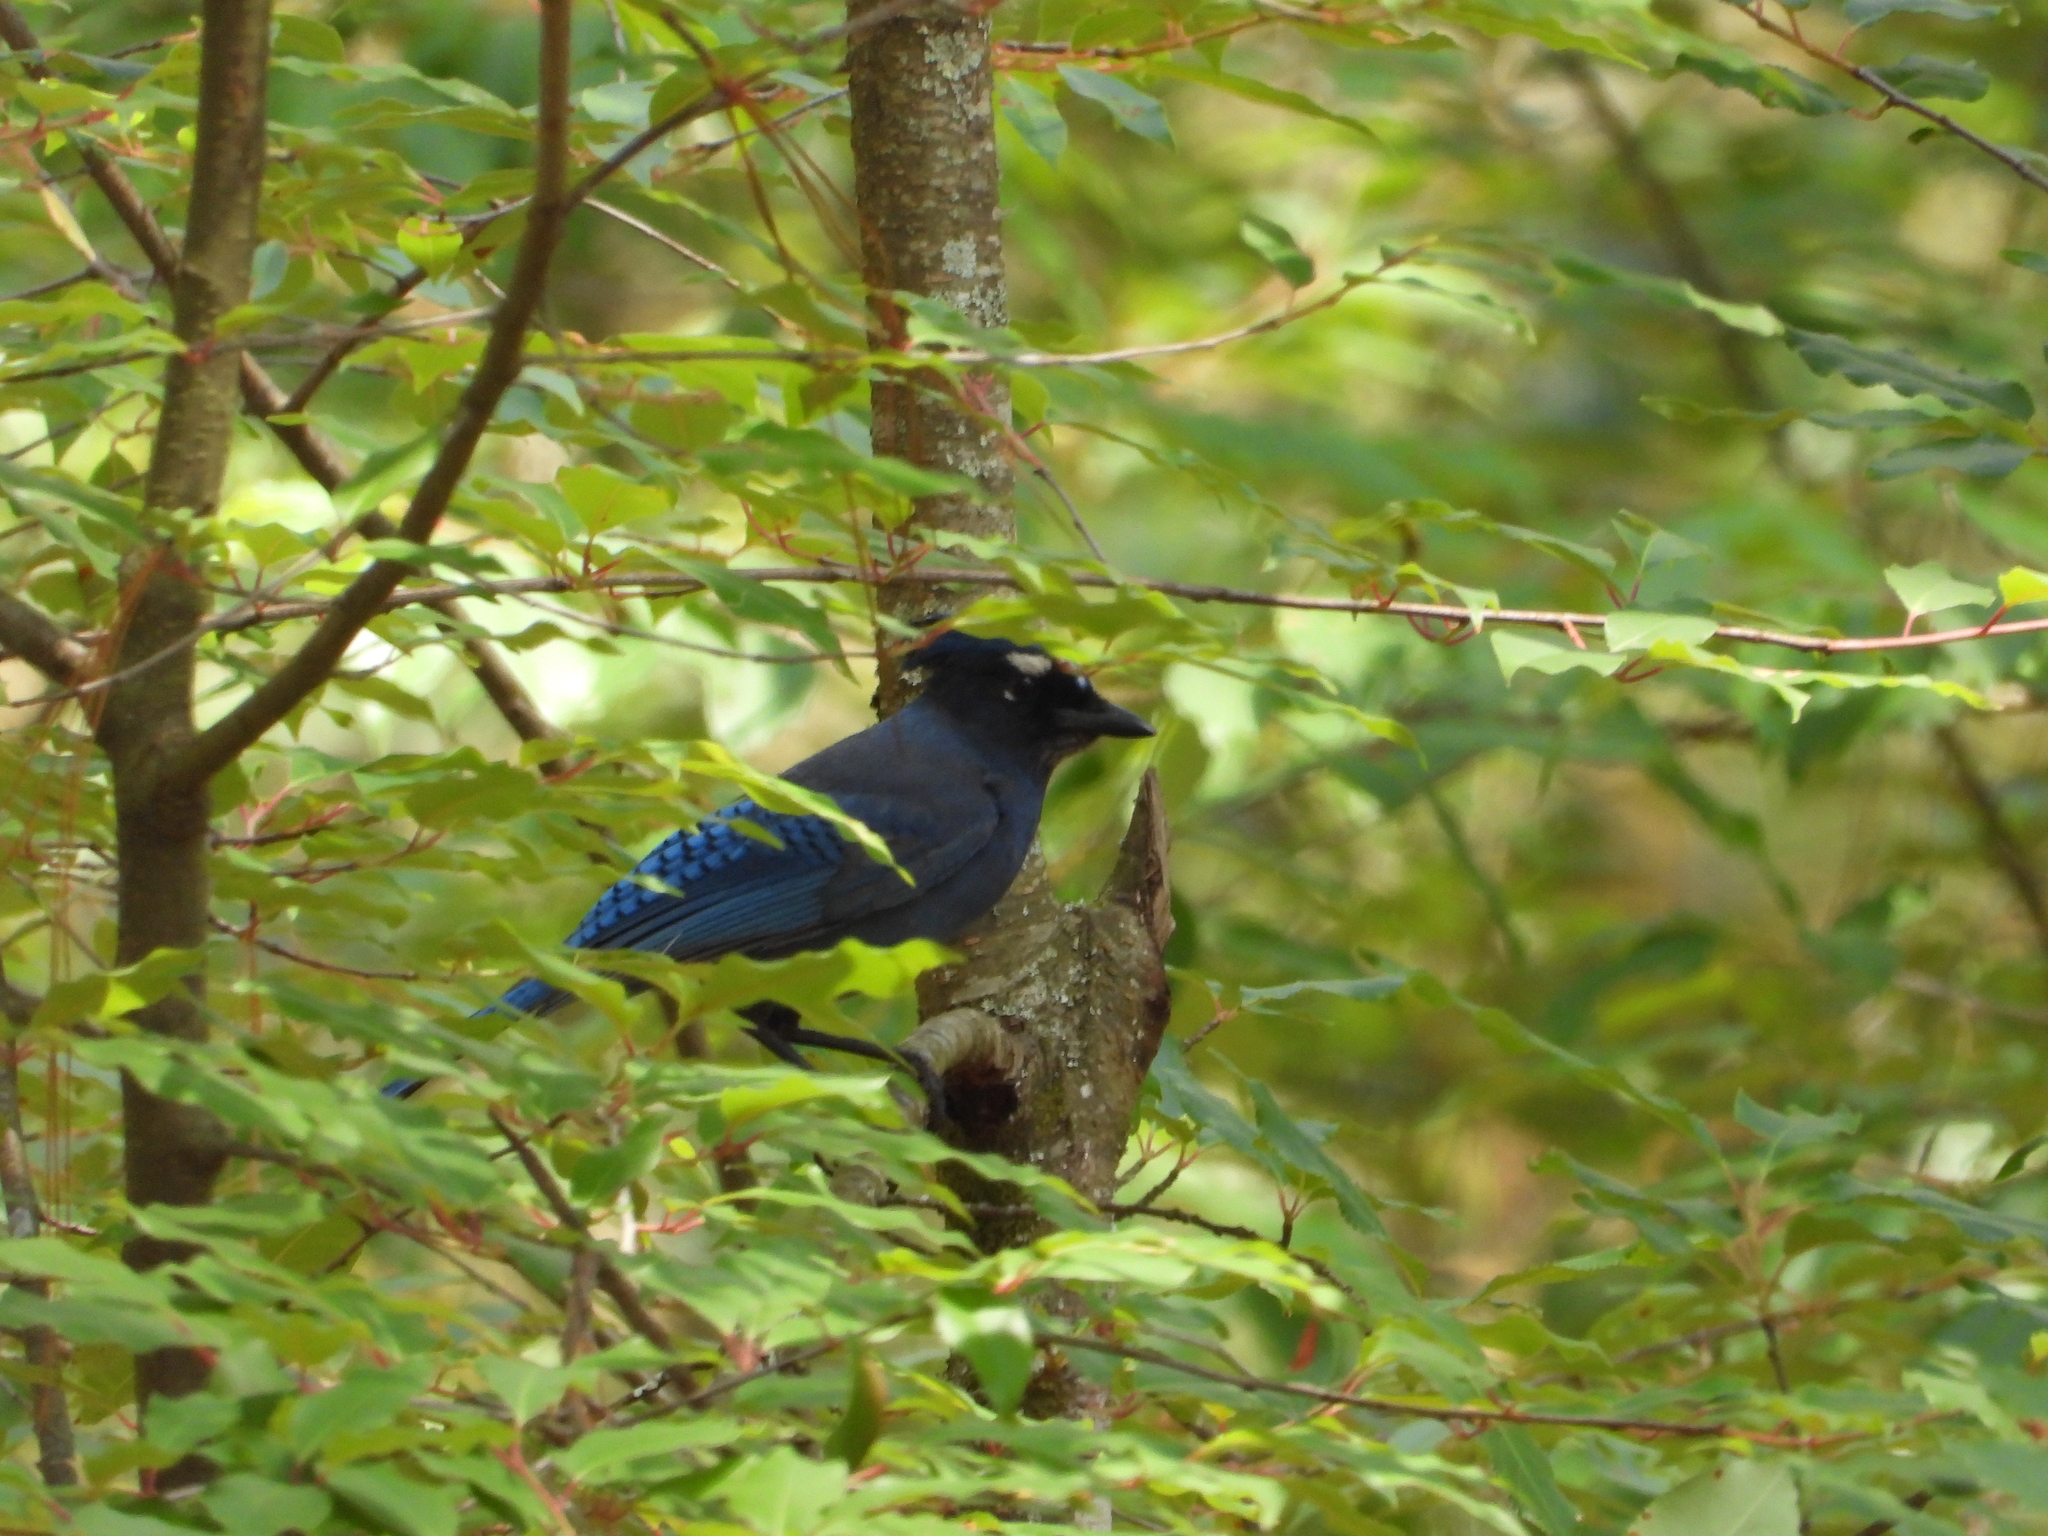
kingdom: Animalia
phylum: Chordata
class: Aves
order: Passeriformes
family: Corvidae
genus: Cyanocitta
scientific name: Cyanocitta stelleri
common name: Steller's jay
